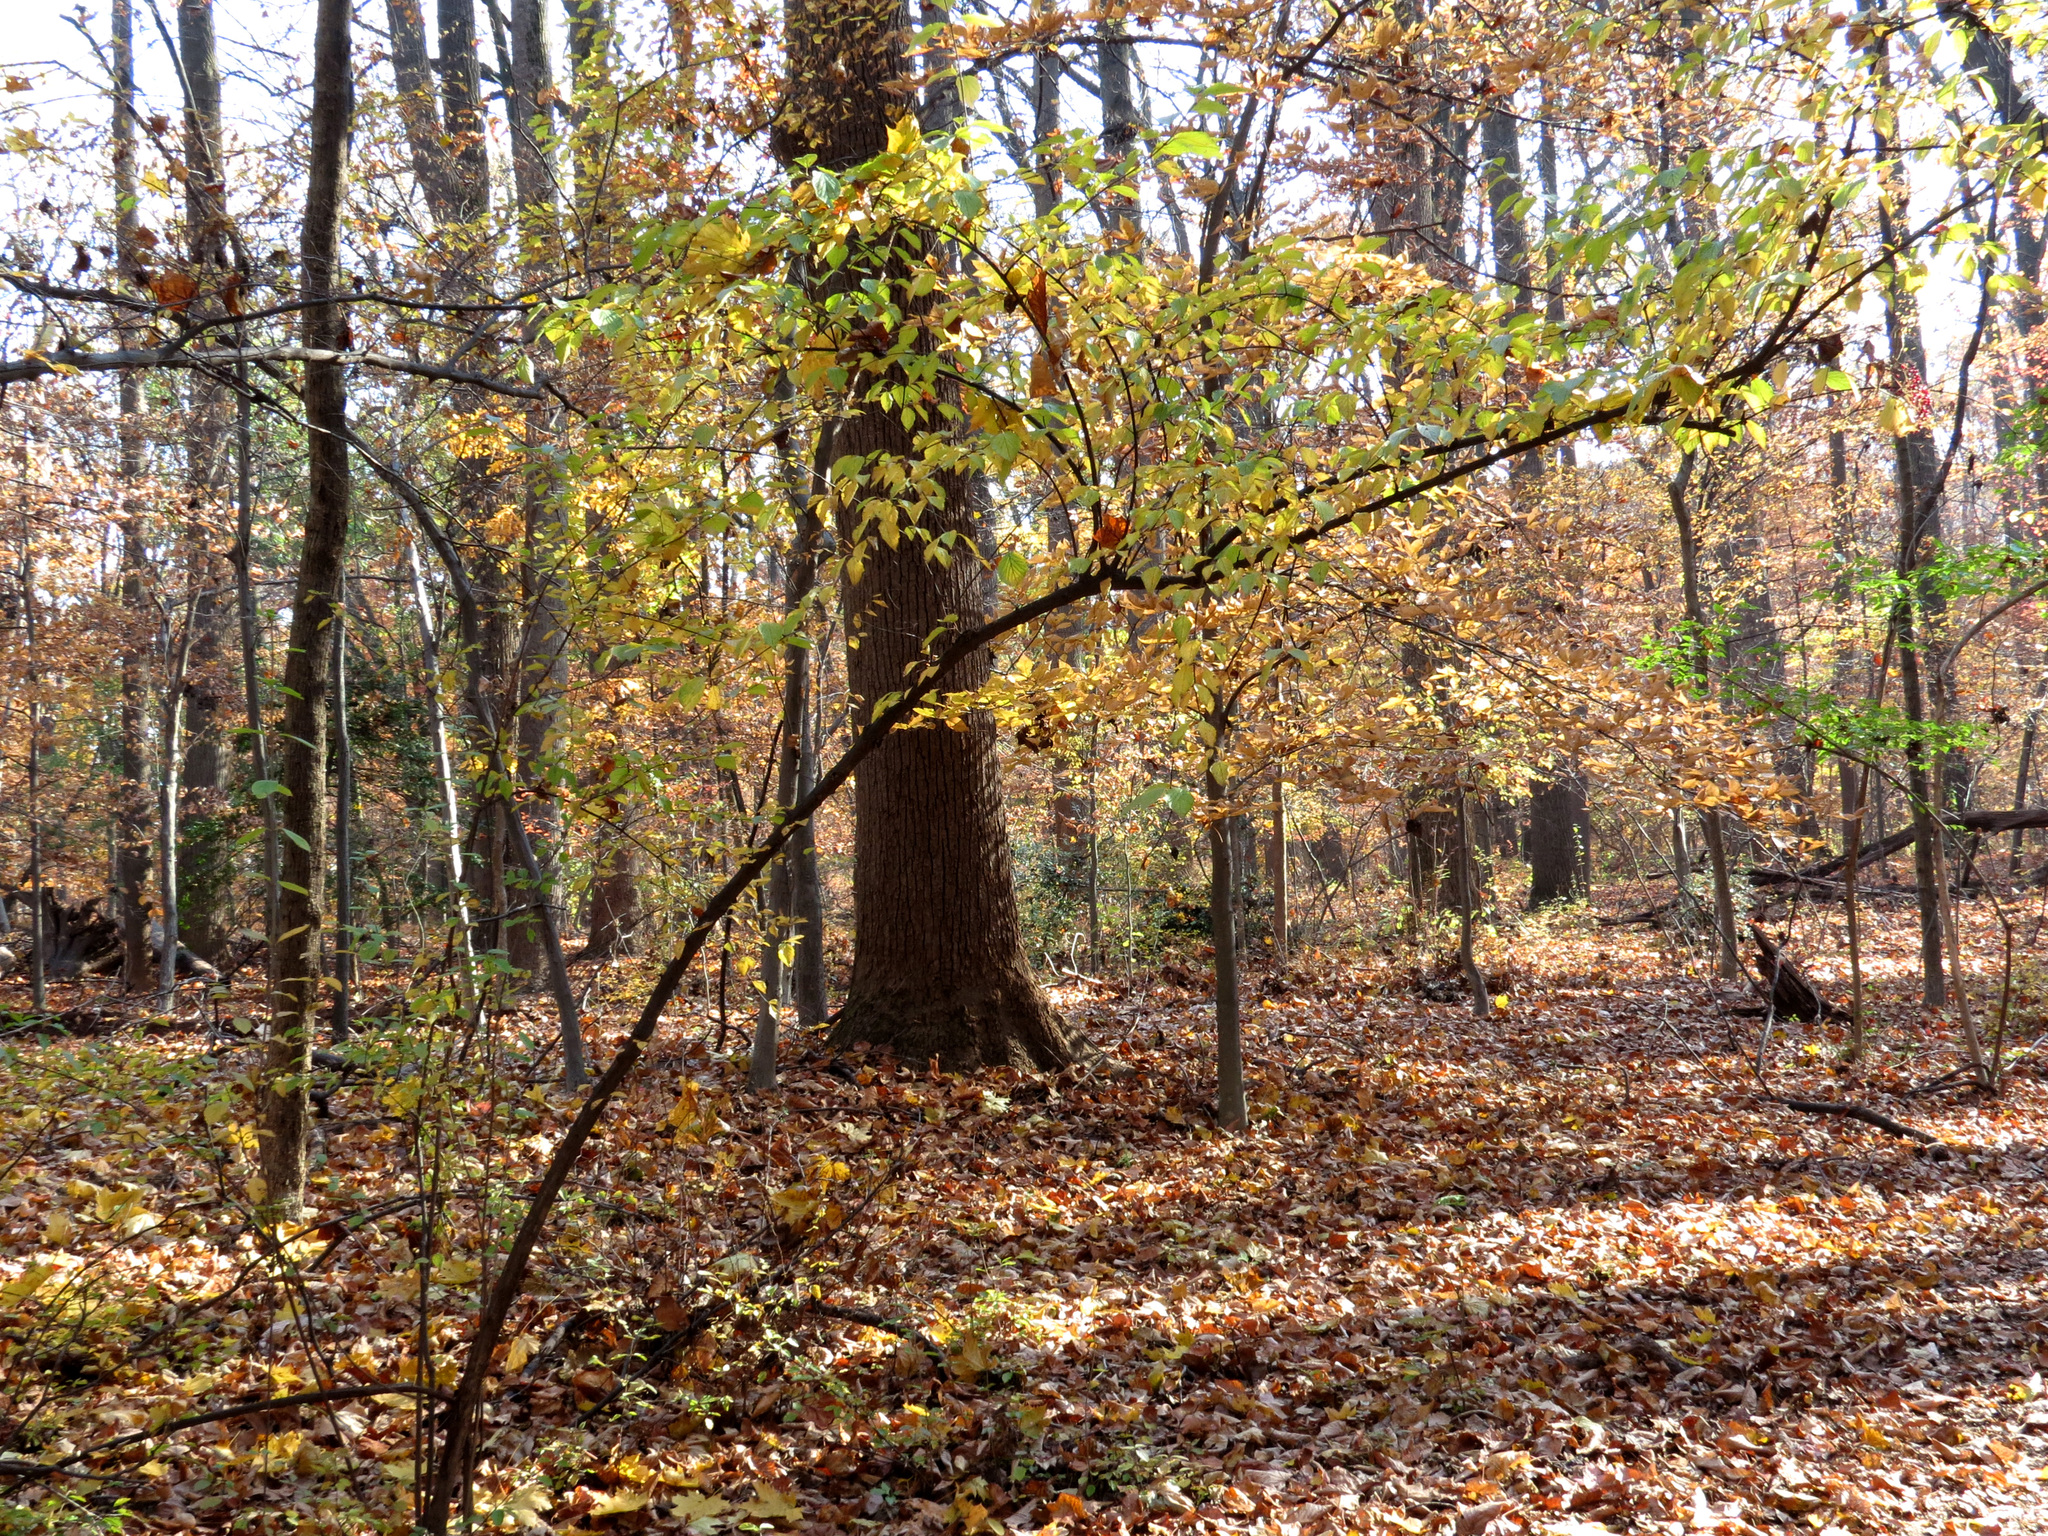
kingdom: Plantae
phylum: Tracheophyta
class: Magnoliopsida
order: Dipsacales
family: Viburnaceae
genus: Viburnum
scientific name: Viburnum dilatatum
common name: Linden arrowwood
